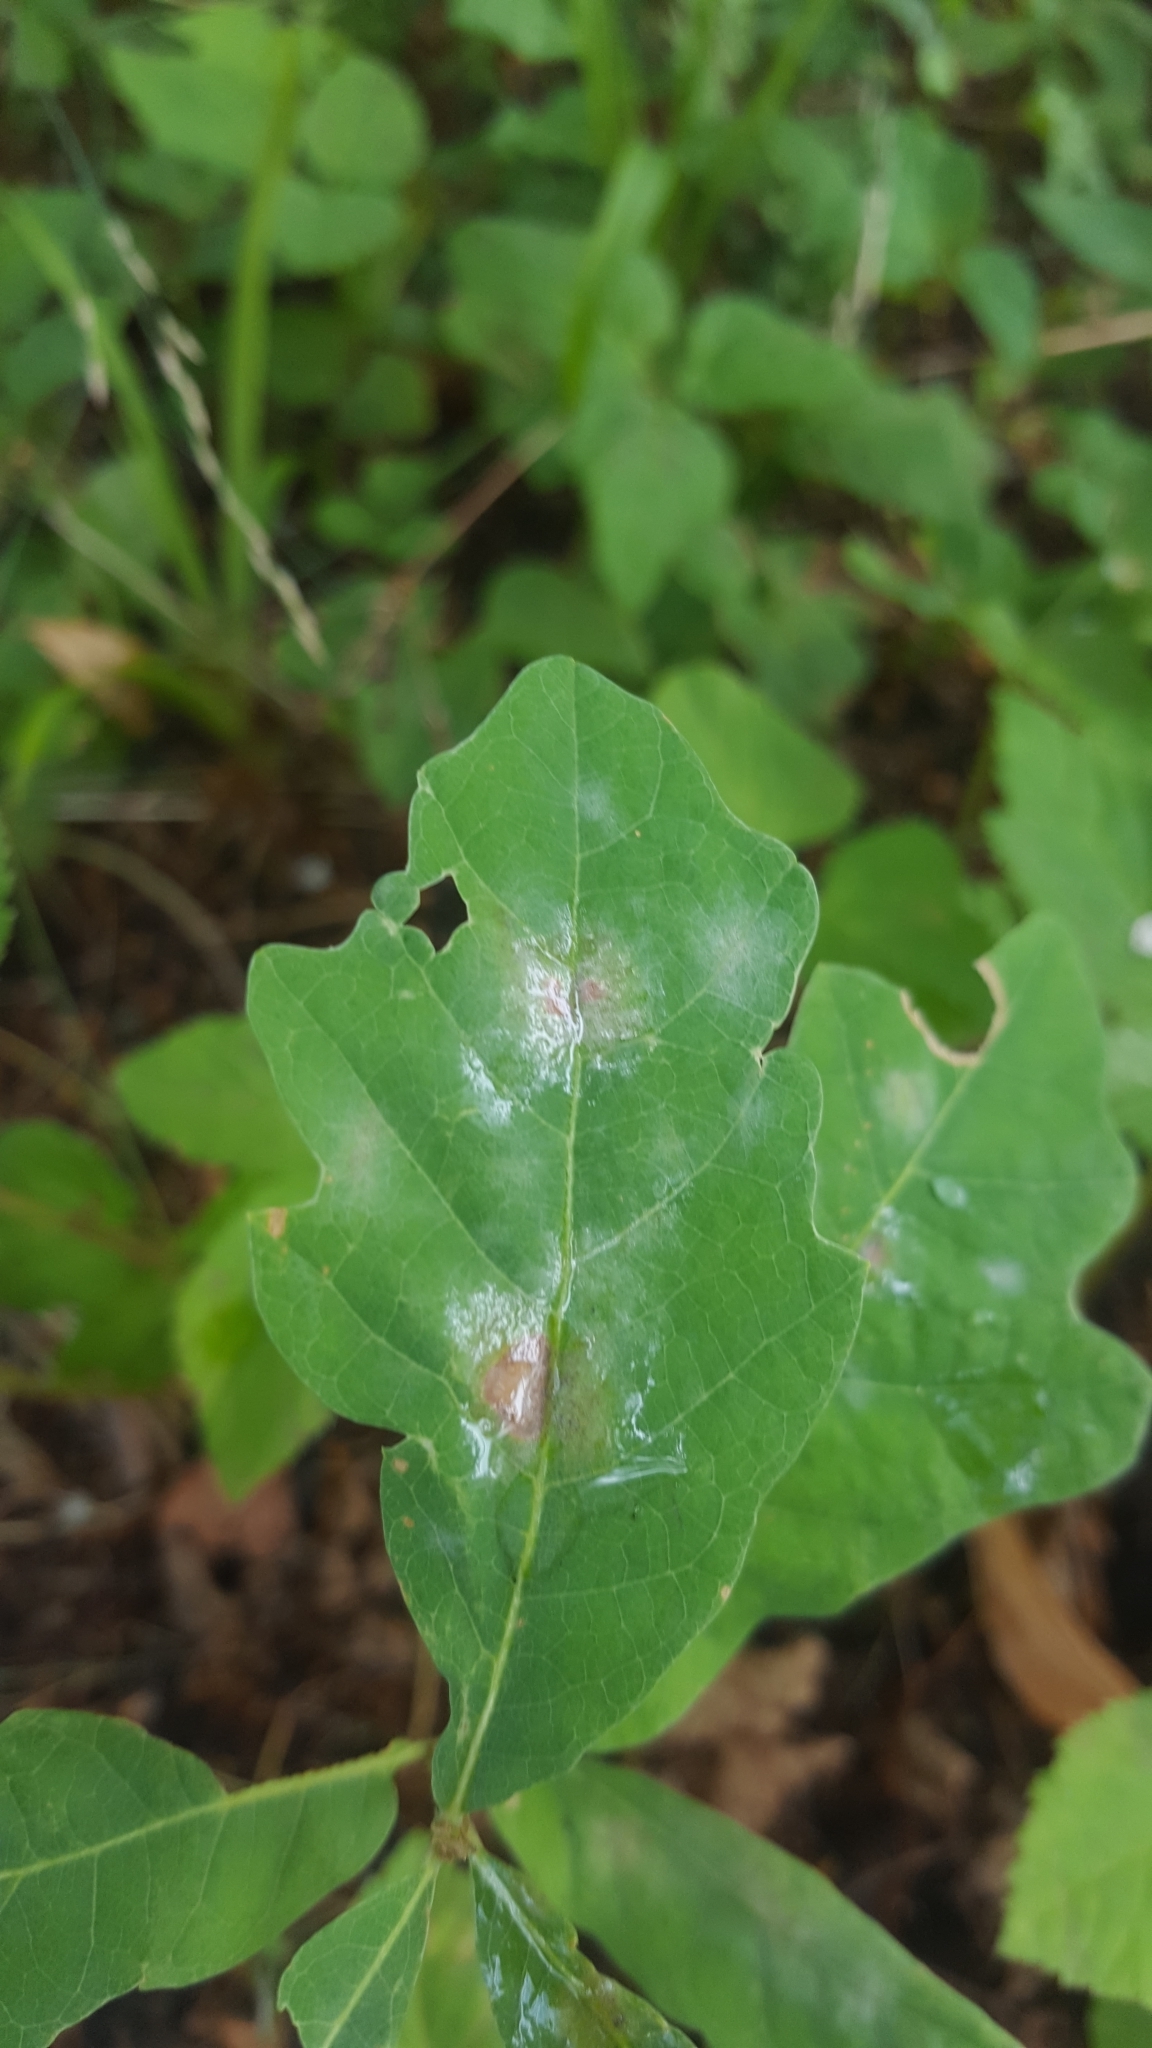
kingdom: Fungi
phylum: Ascomycota
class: Leotiomycetes
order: Helotiales
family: Erysiphaceae
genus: Erysiphe
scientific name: Erysiphe
